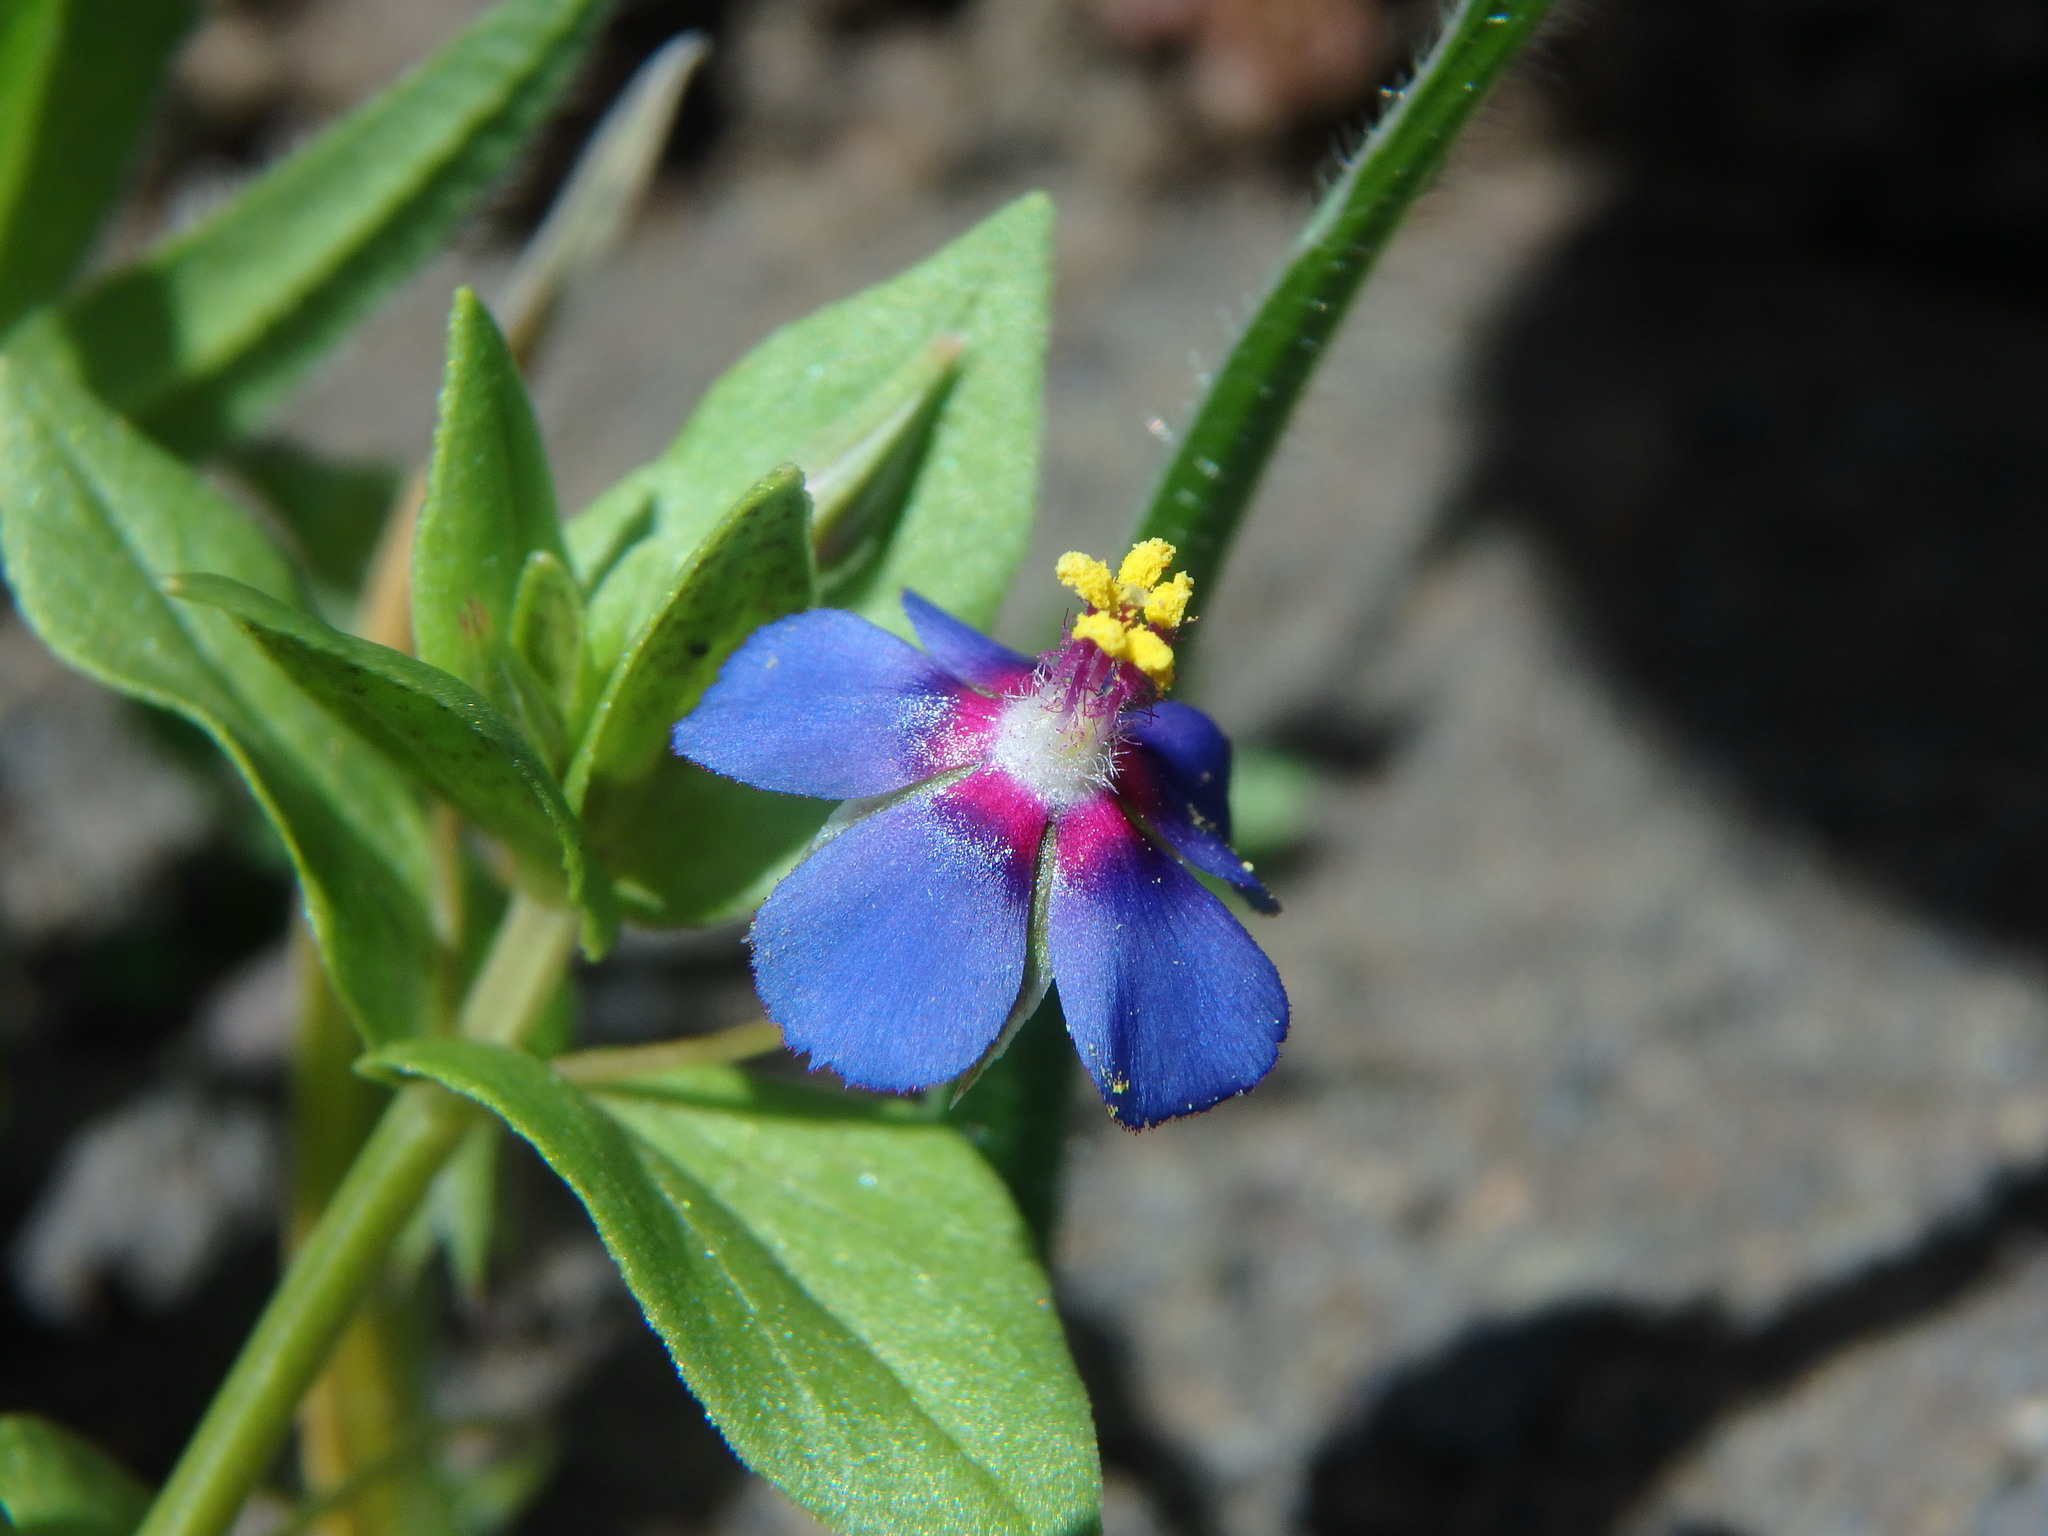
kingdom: Plantae
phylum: Tracheophyta
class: Magnoliopsida
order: Ericales
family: Primulaceae
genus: Lysimachia
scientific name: Lysimachia loeflingii
